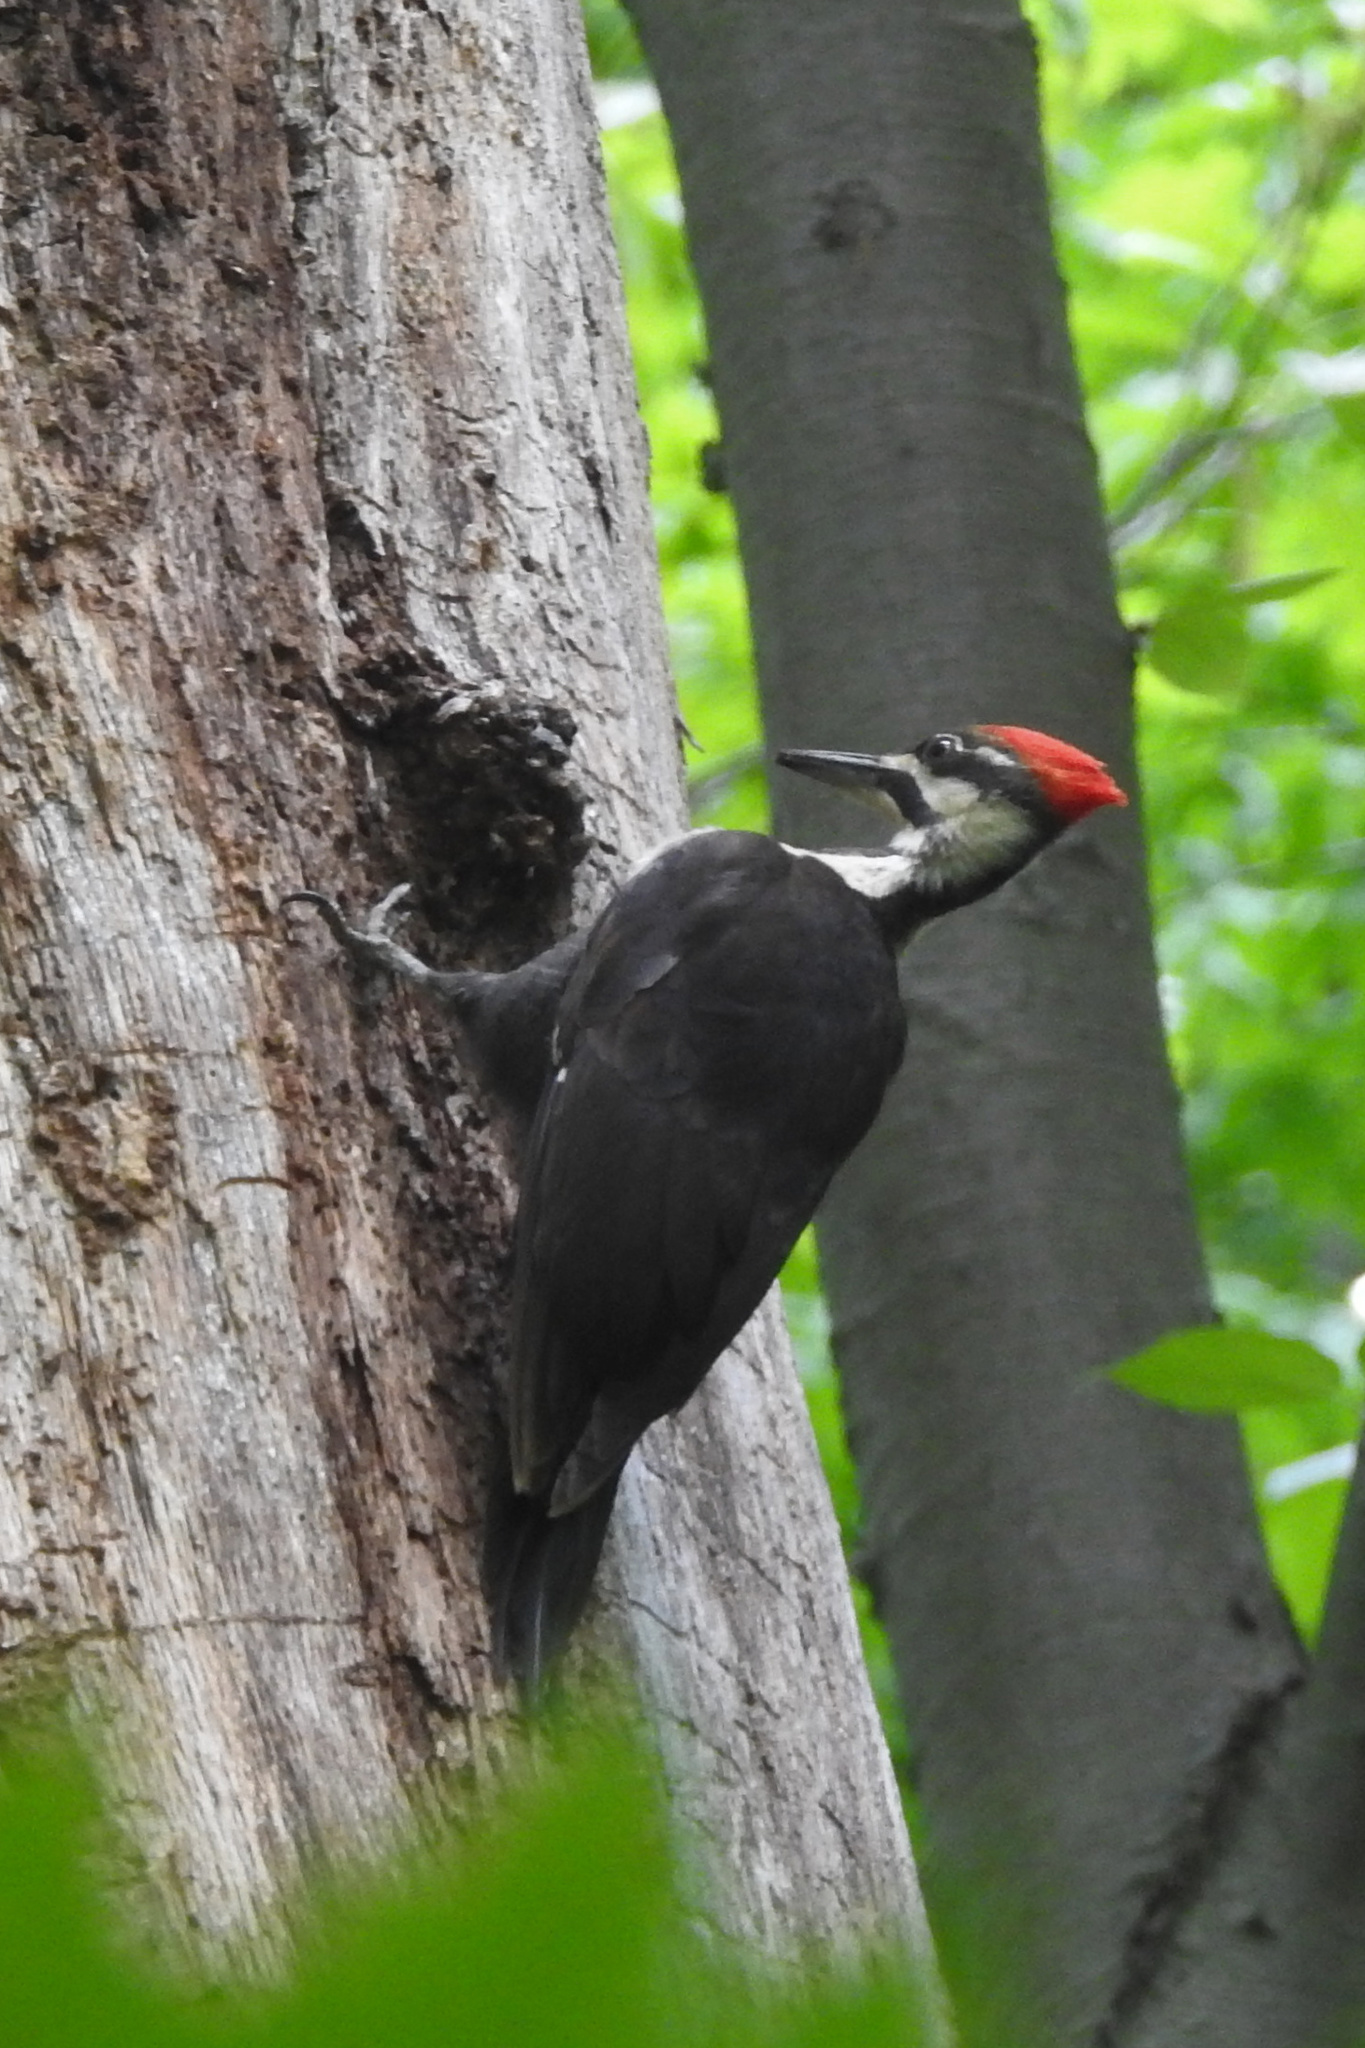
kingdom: Animalia
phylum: Chordata
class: Aves
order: Piciformes
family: Picidae
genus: Dryocopus
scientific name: Dryocopus pileatus
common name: Pileated woodpecker
